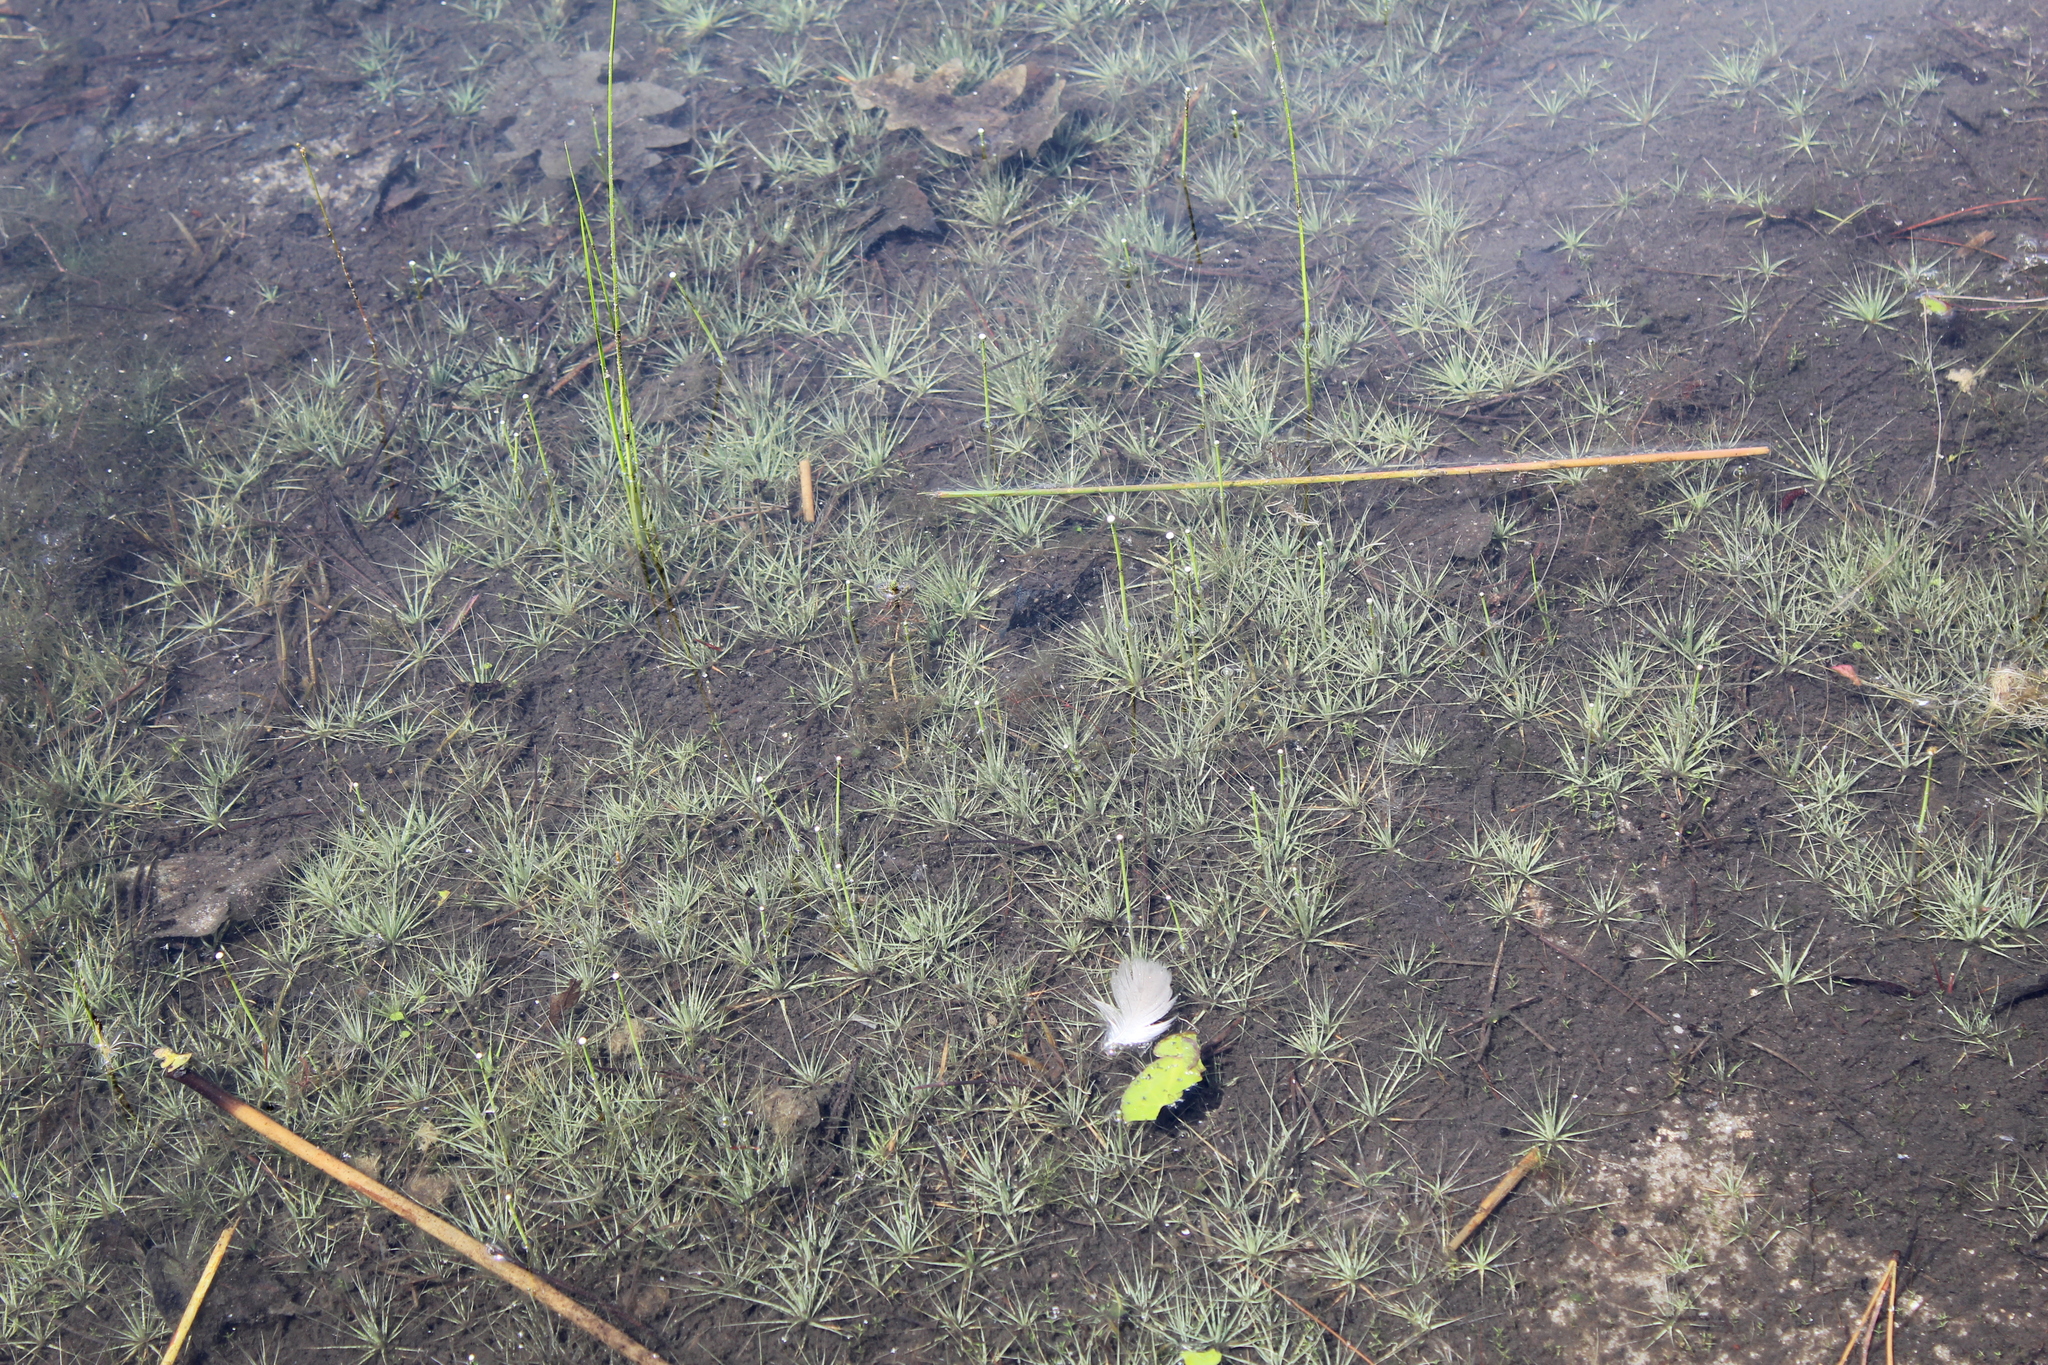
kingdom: Plantae
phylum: Tracheophyta
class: Liliopsida
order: Poales
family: Eriocaulaceae
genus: Eriocaulon
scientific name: Eriocaulon aquaticum
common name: Pipewort
